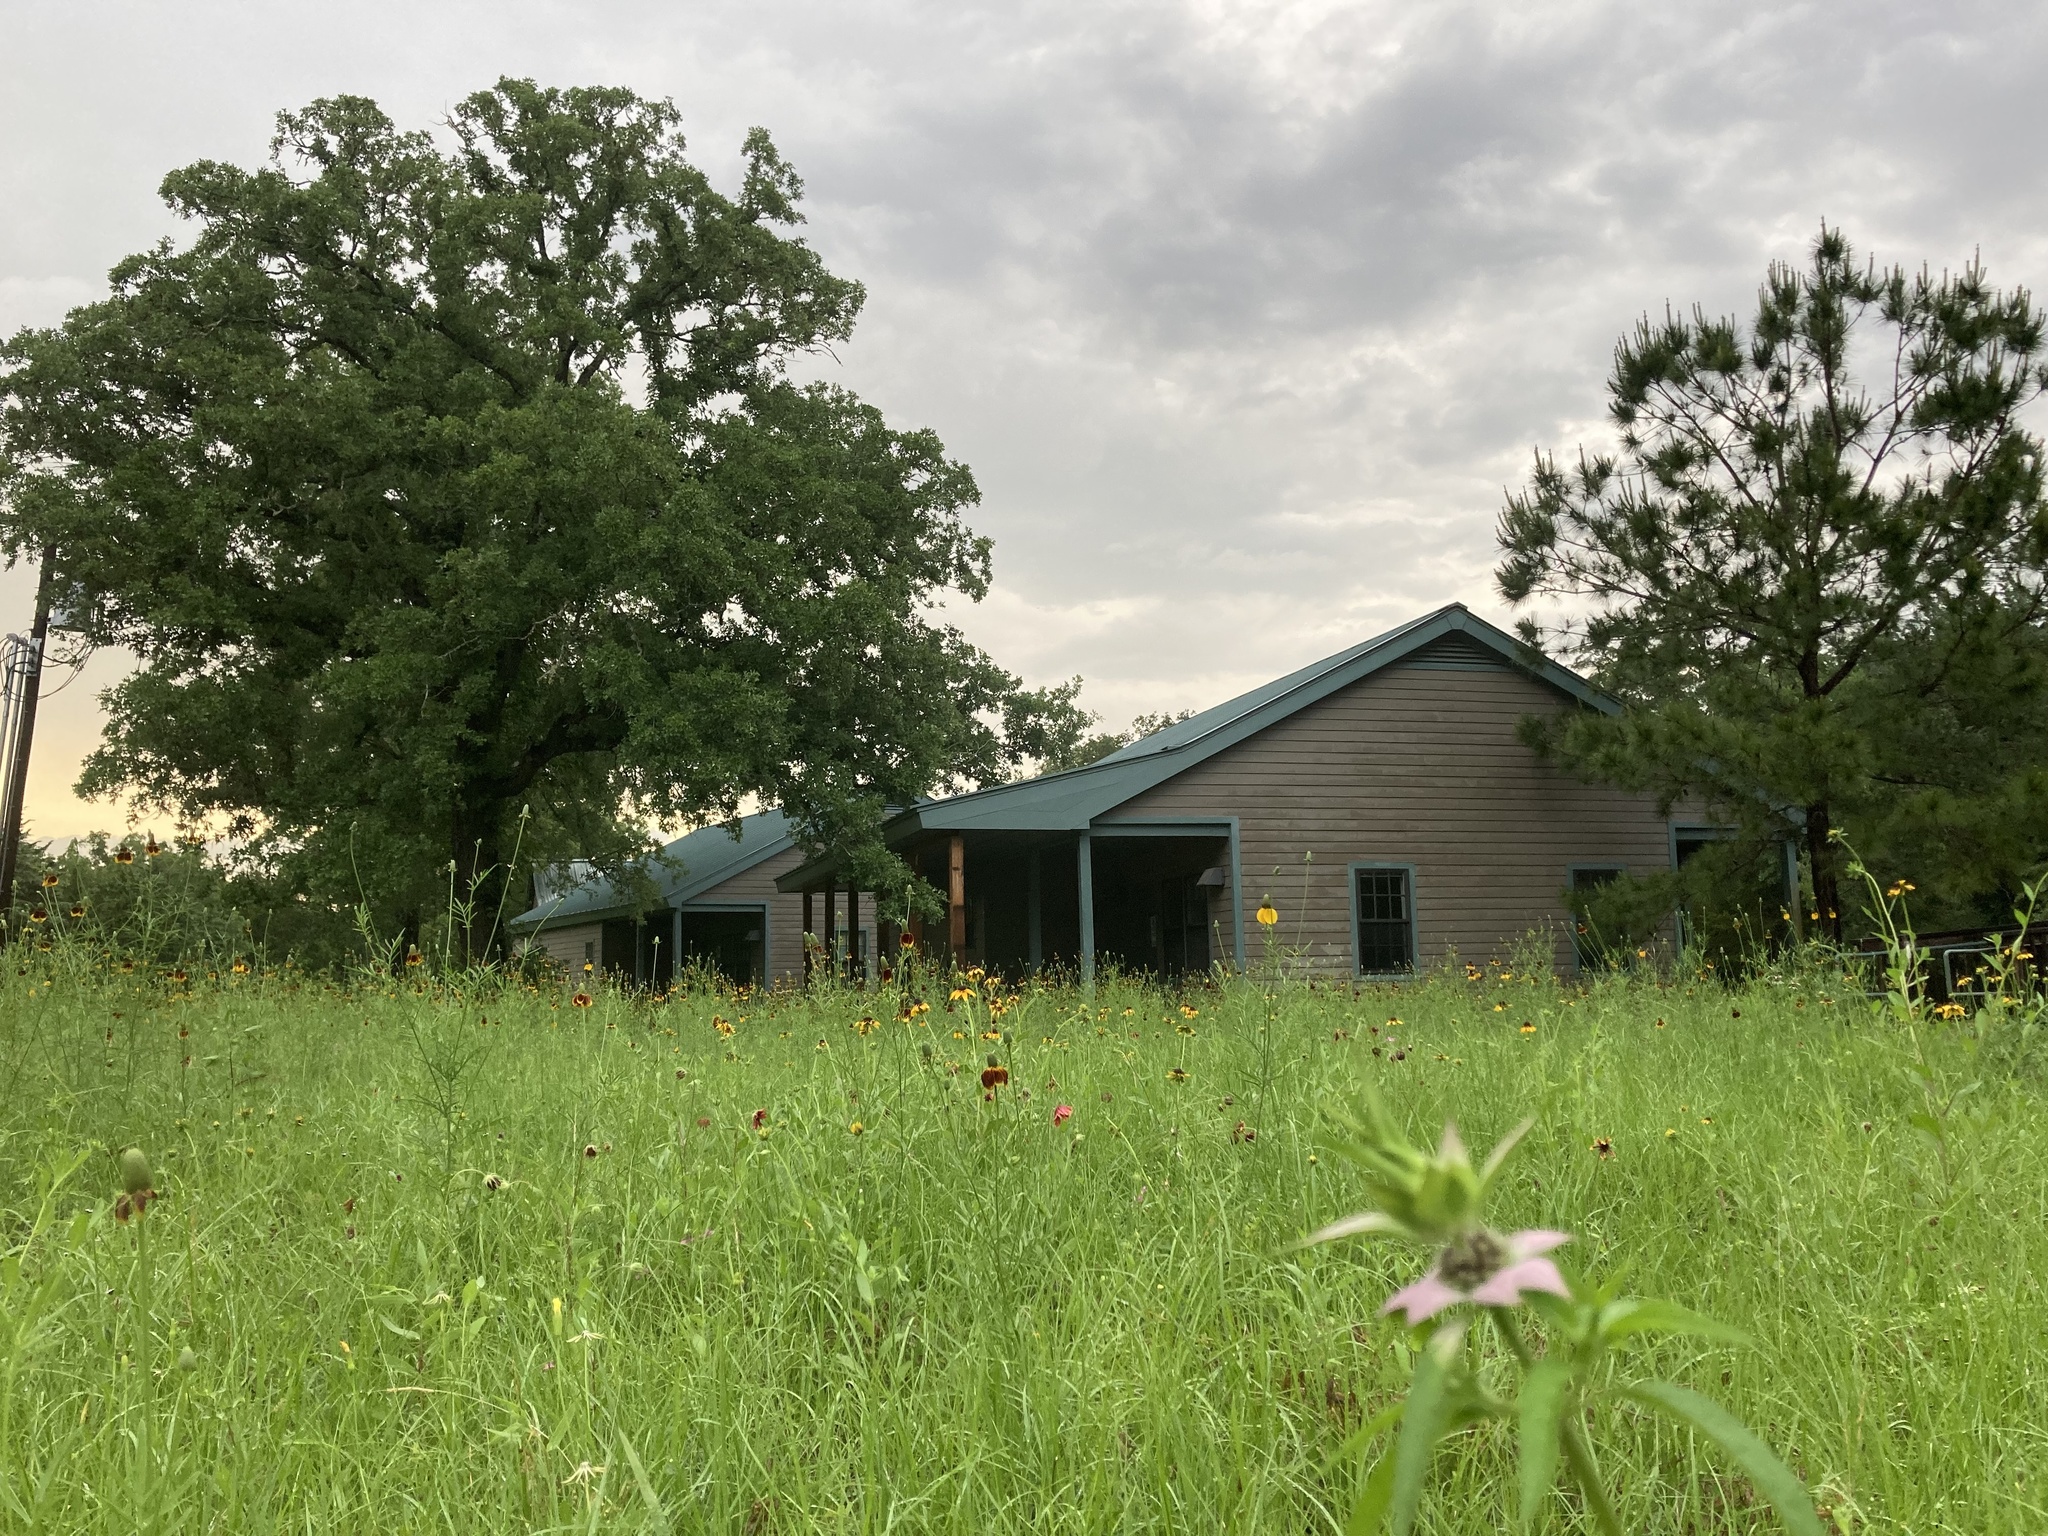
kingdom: Plantae
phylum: Tracheophyta
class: Magnoliopsida
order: Lamiales
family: Lamiaceae
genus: Monarda
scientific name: Monarda punctata
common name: Dotted monarda
